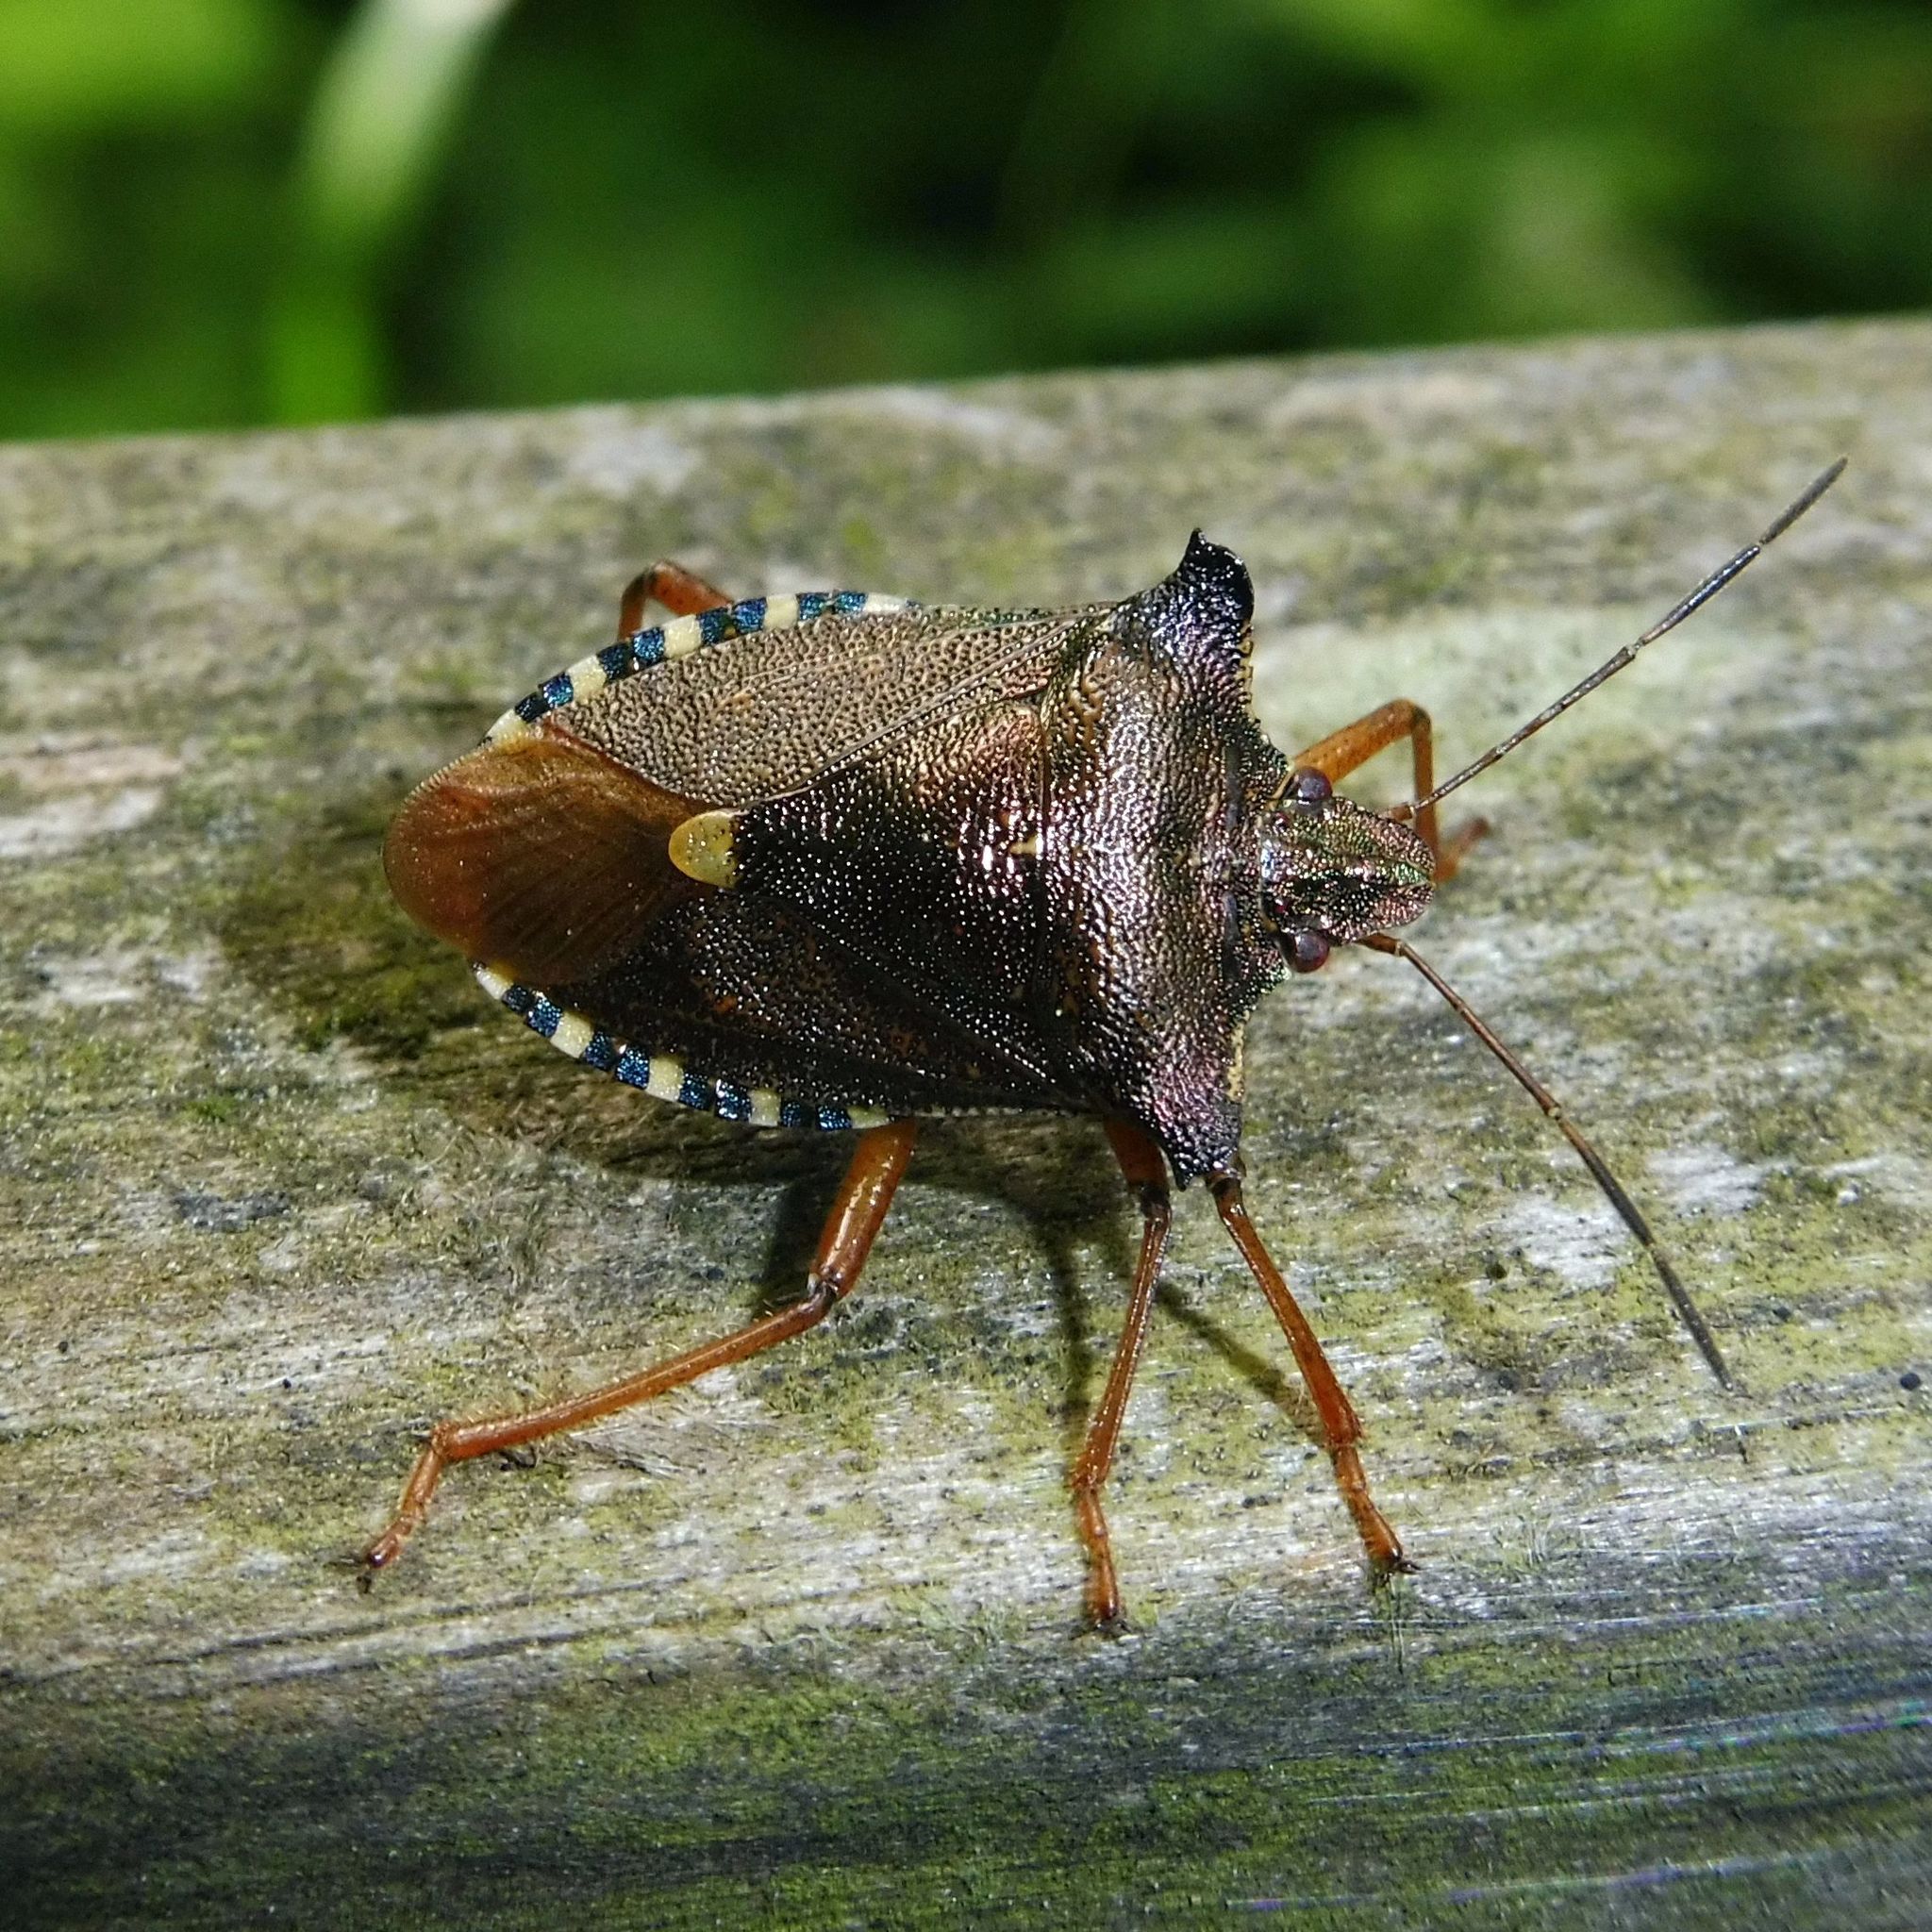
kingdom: Animalia
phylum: Arthropoda
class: Insecta
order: Hemiptera
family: Pentatomidae
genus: Pentatoma
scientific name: Pentatoma rufipes
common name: Forest bug
